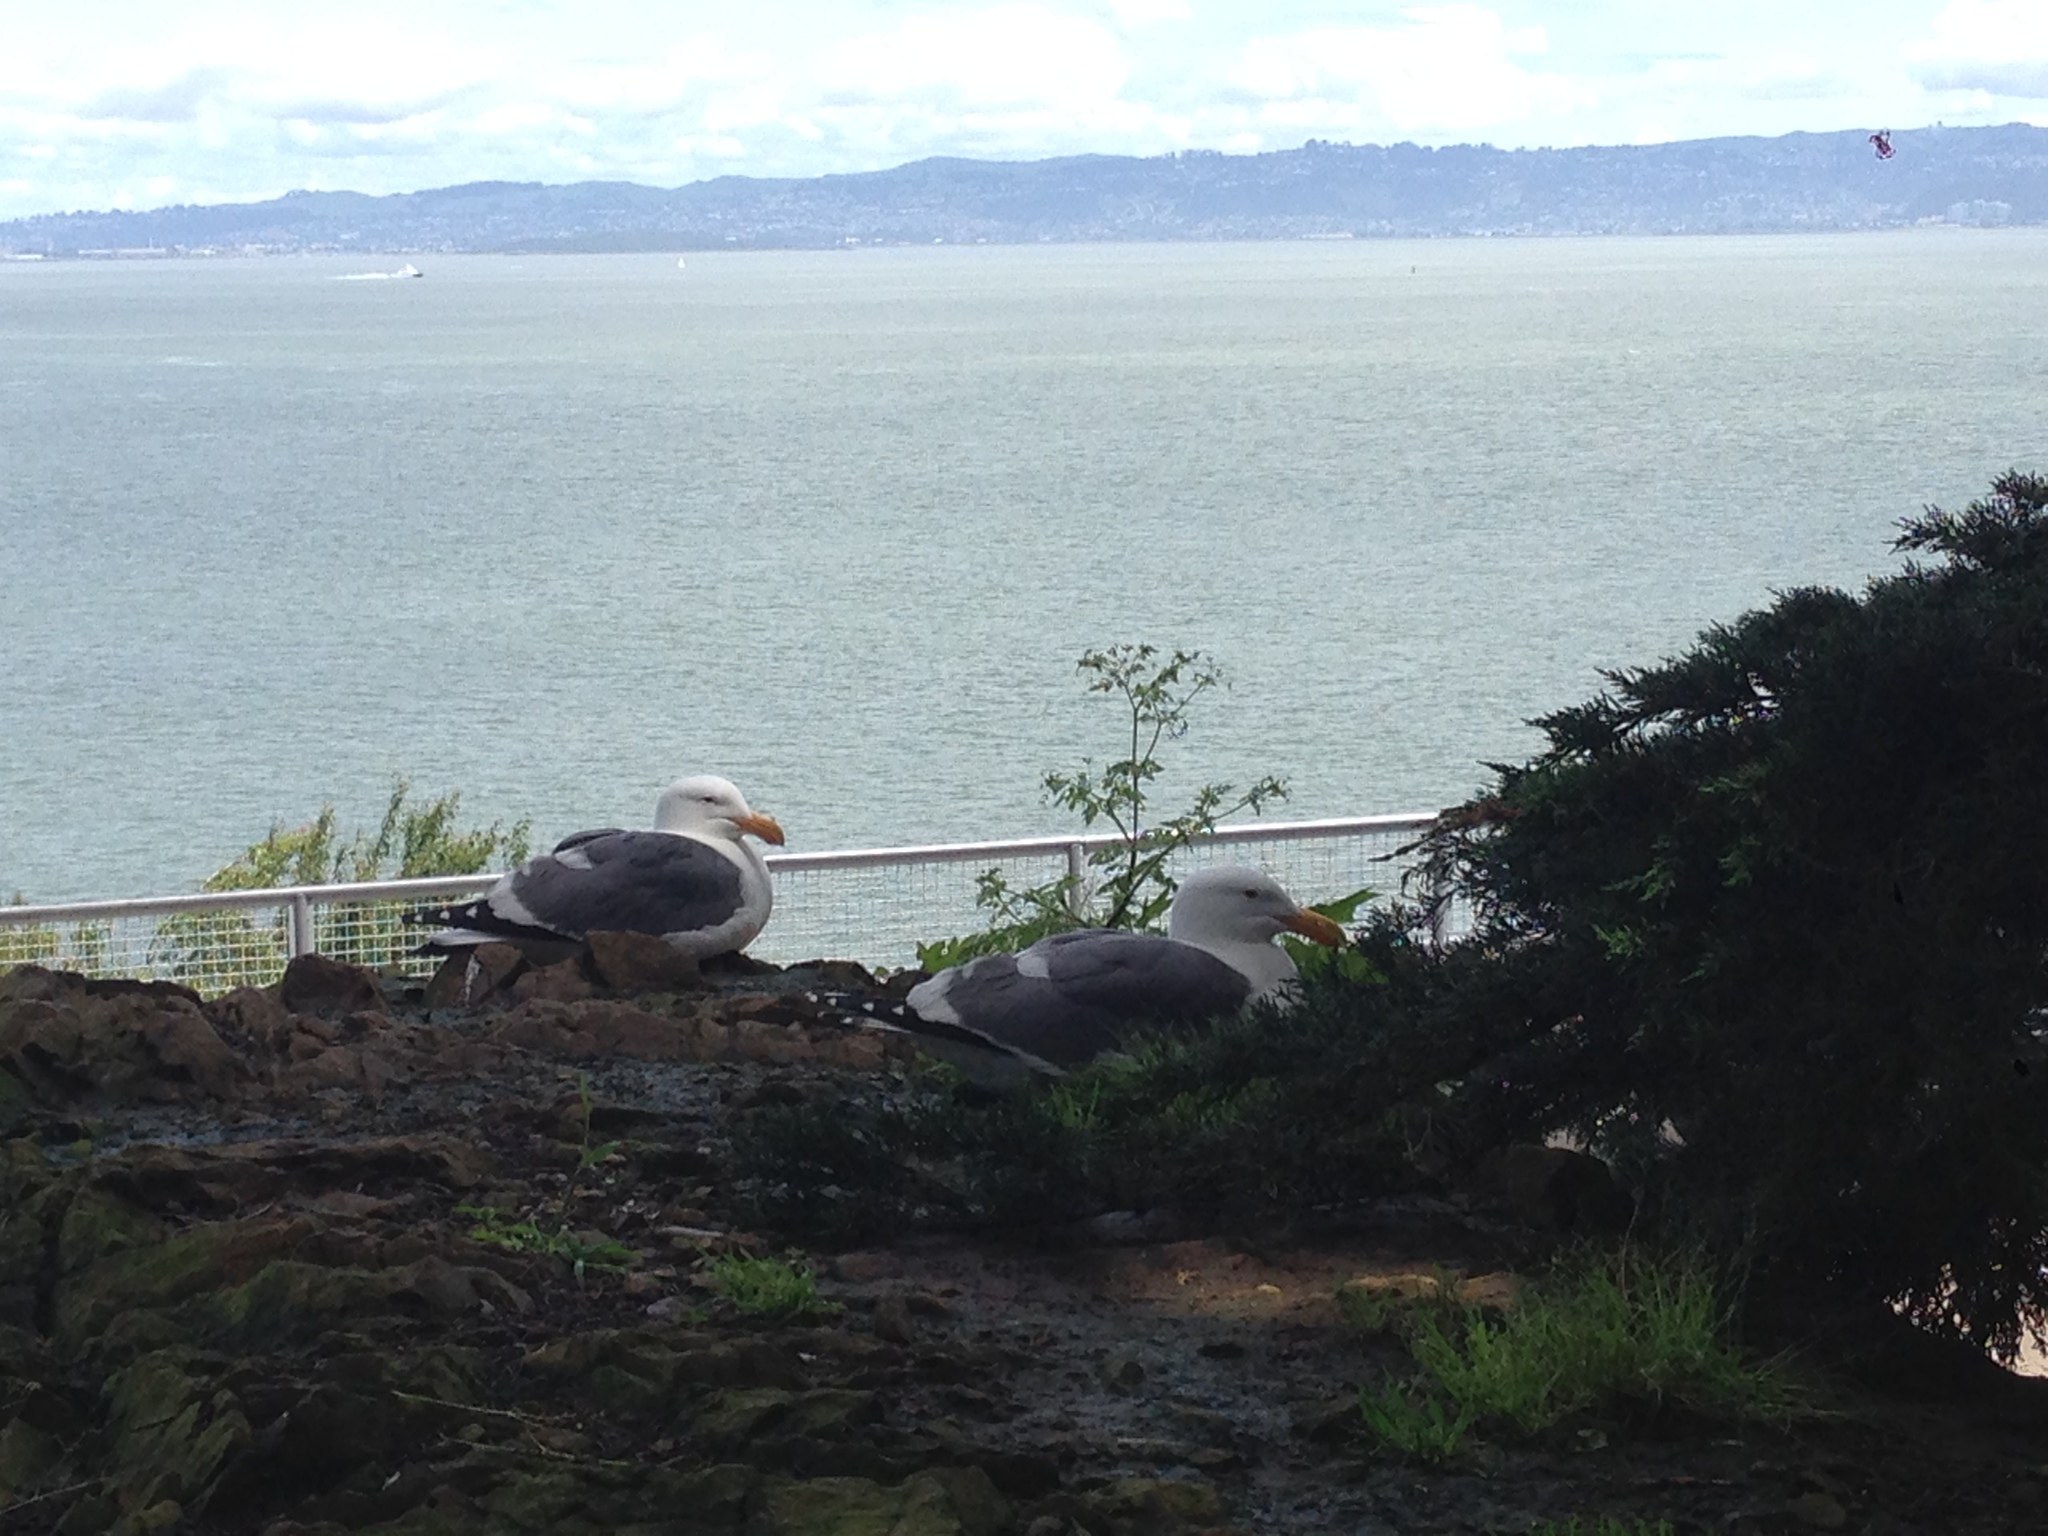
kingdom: Animalia
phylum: Chordata
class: Aves
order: Charadriiformes
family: Laridae
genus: Larus
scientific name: Larus occidentalis
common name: Western gull
